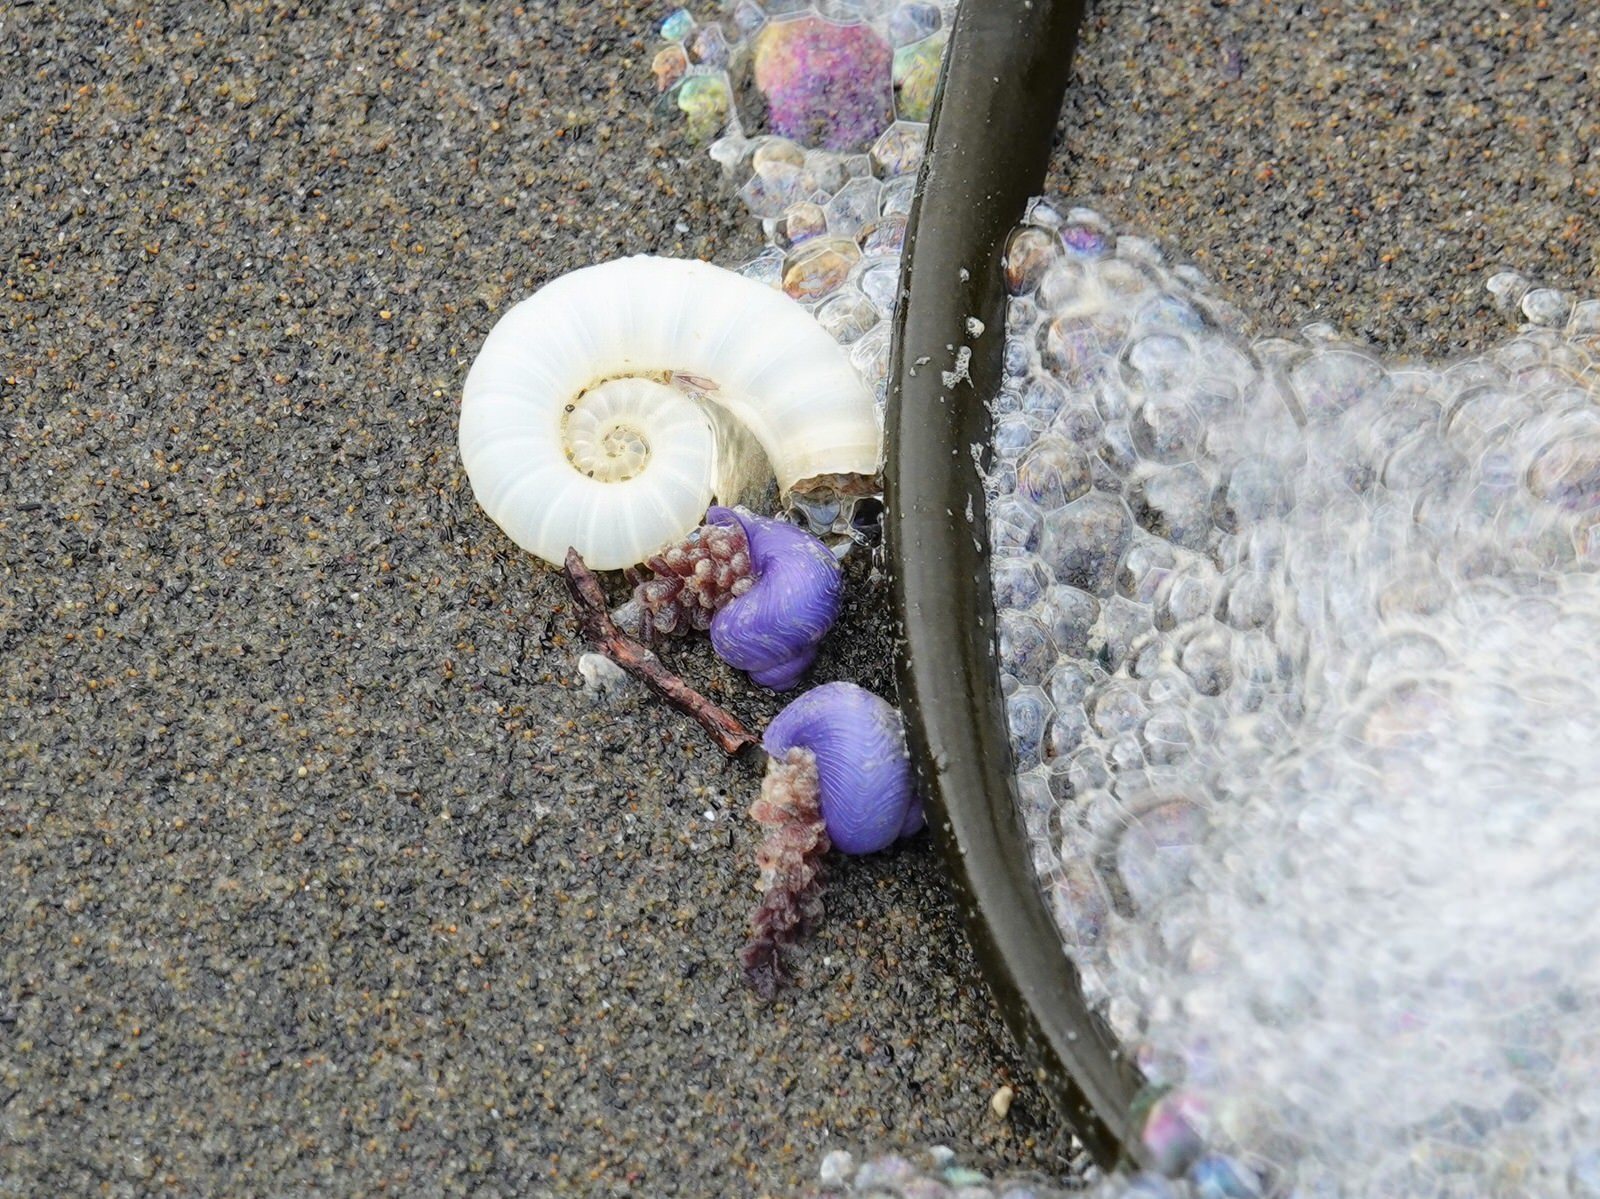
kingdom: Animalia
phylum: Mollusca
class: Gastropoda
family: Epitoniidae
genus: Janthina
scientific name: Janthina exigua
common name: Dwarf janthina
